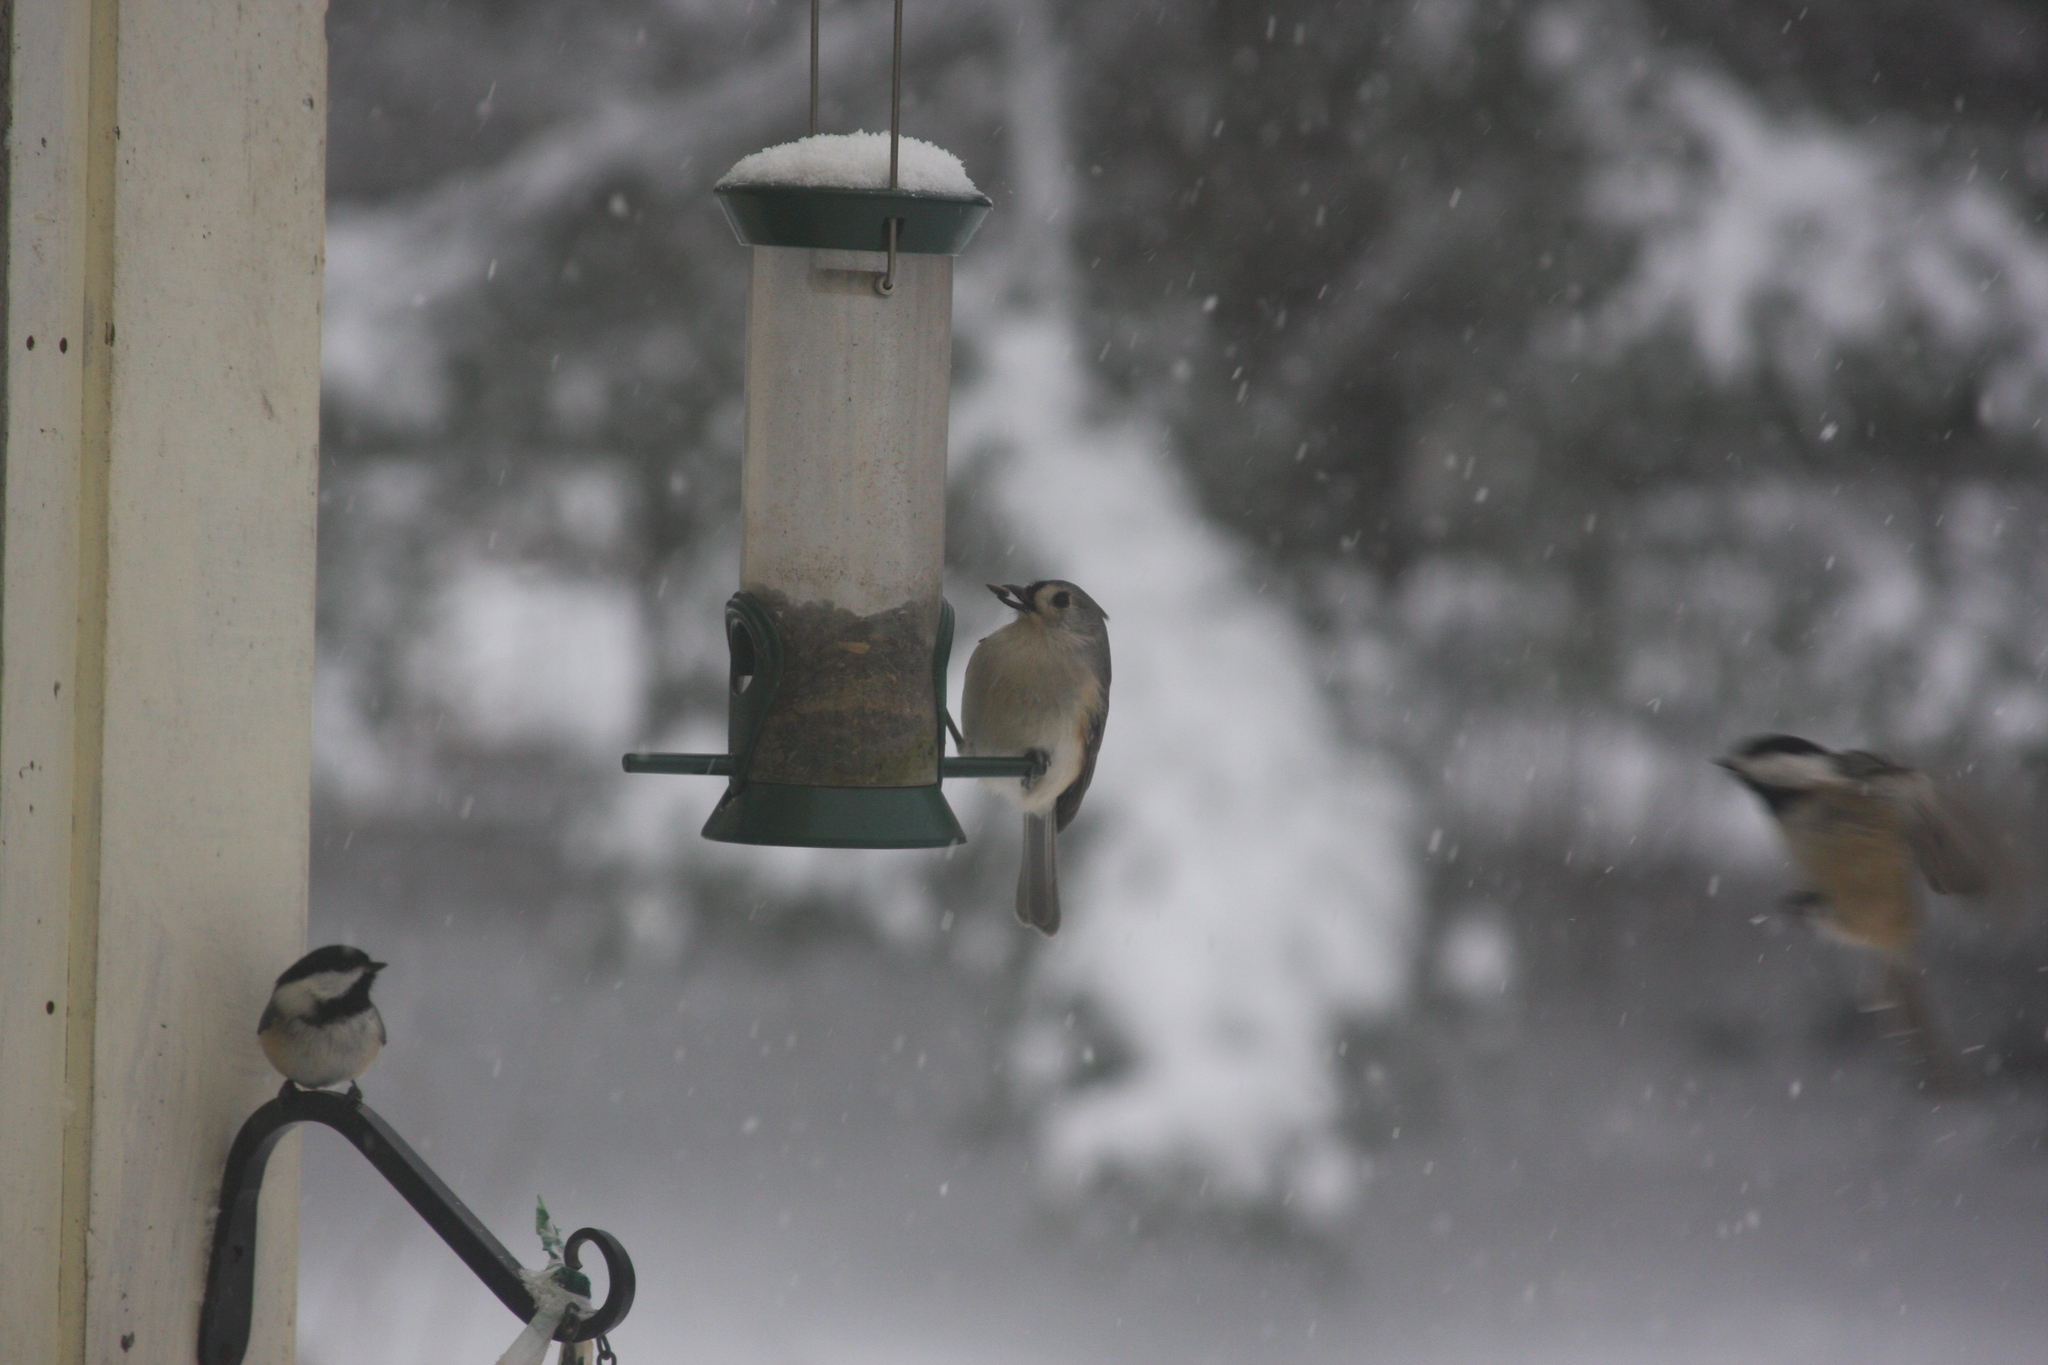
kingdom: Animalia
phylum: Chordata
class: Aves
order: Passeriformes
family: Paridae
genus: Baeolophus
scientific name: Baeolophus bicolor
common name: Tufted titmouse
